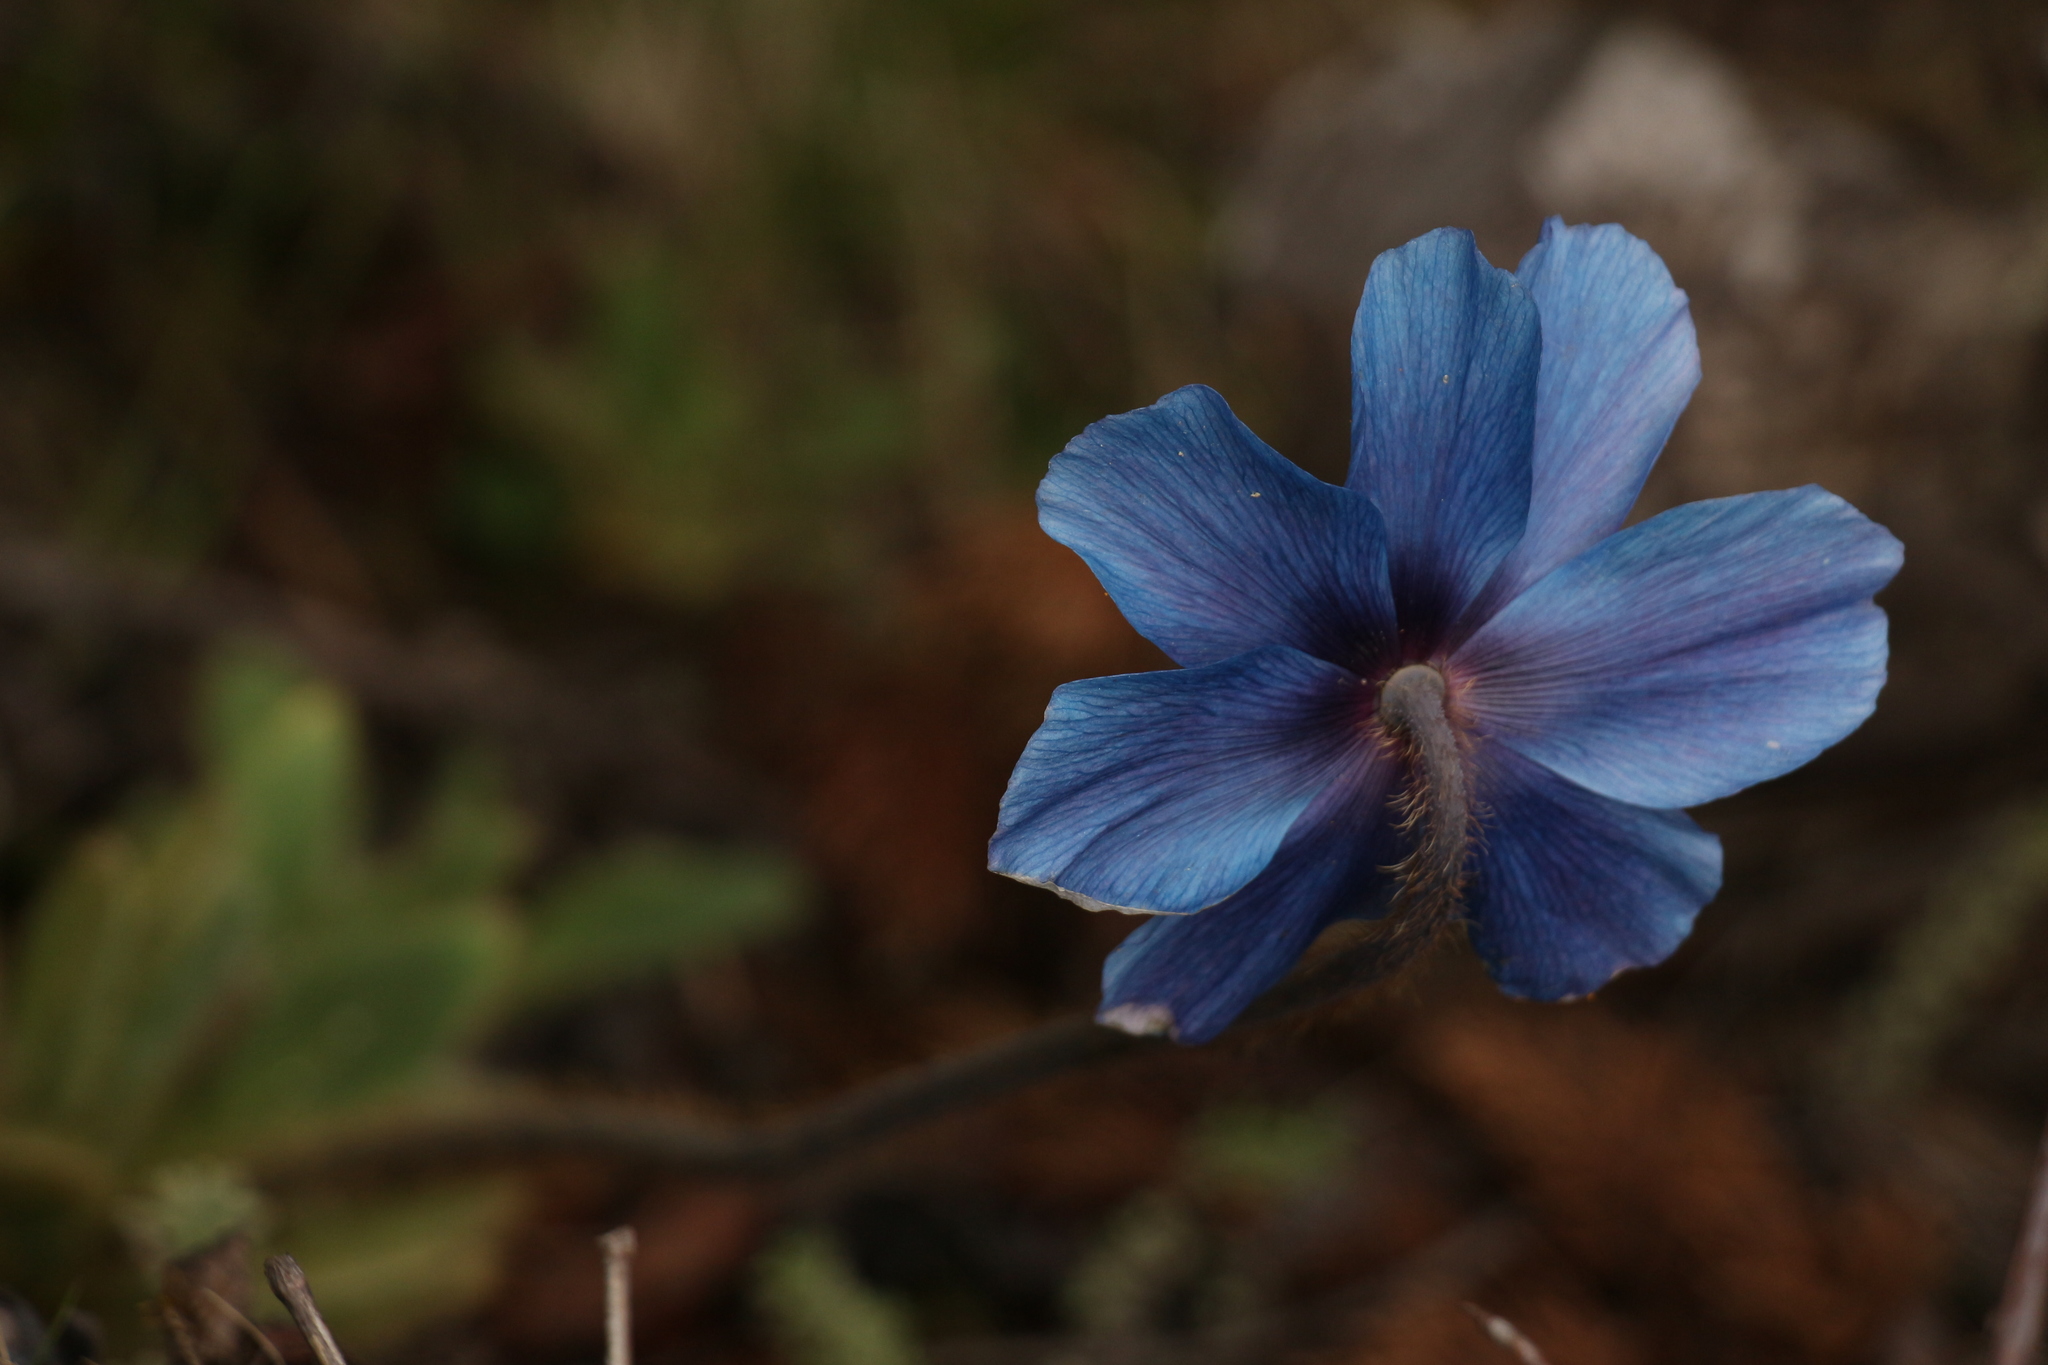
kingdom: Plantae
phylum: Tracheophyta
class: Magnoliopsida
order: Ranunculales
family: Papaveraceae
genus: Meconopsis
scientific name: Meconopsis simplicifolia
